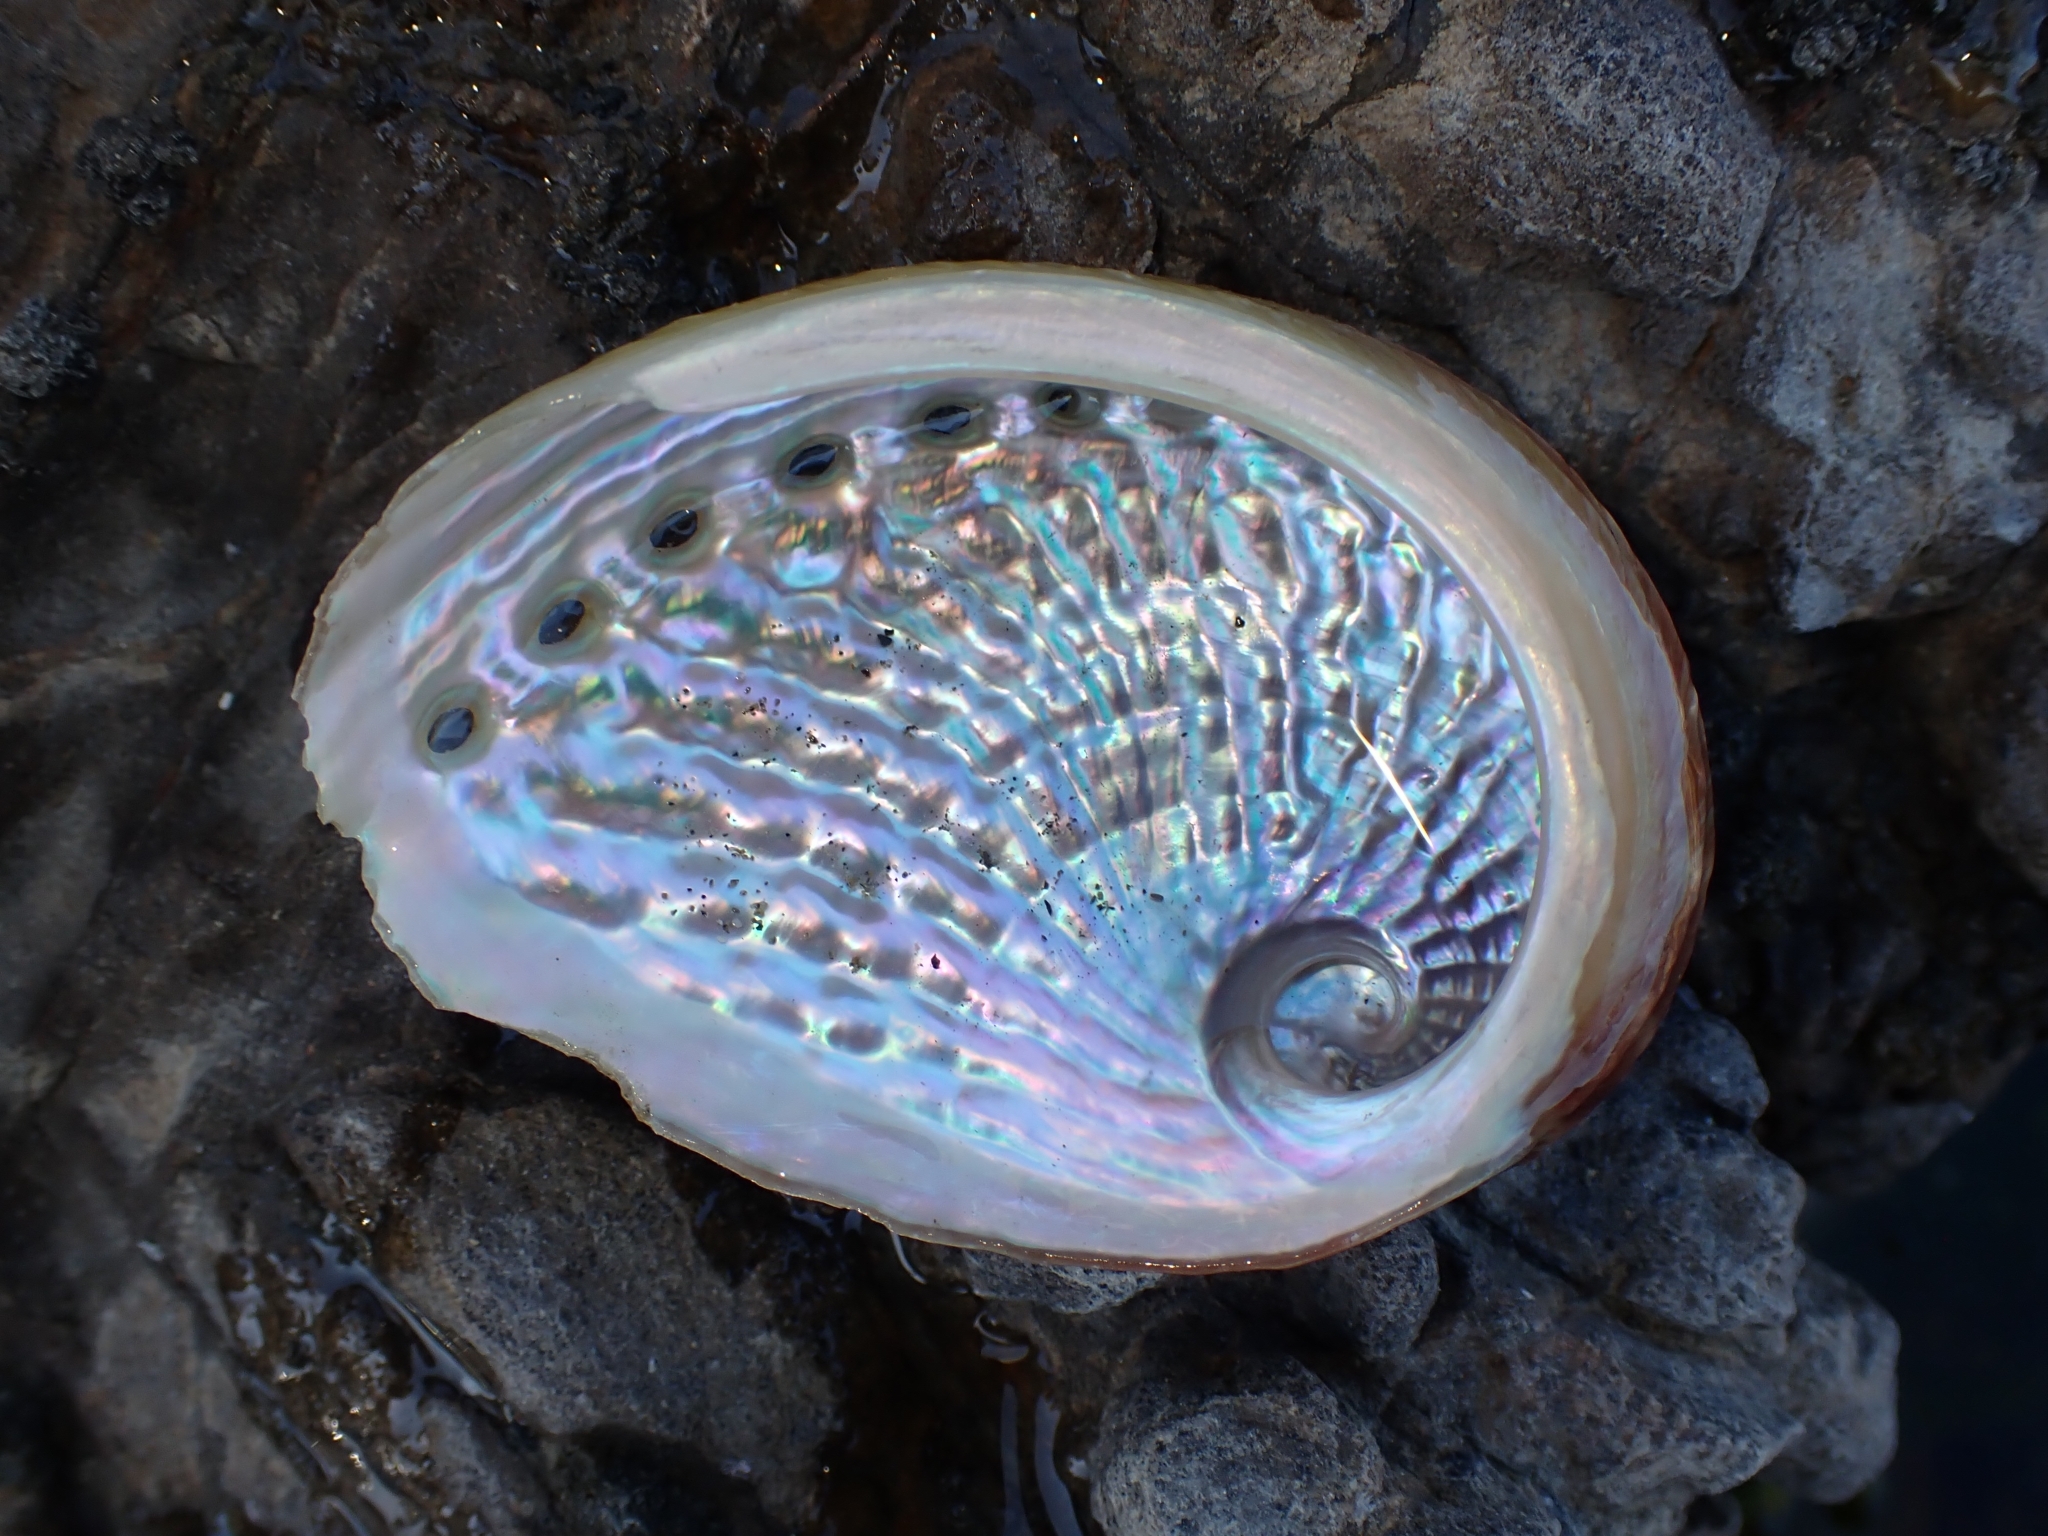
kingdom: Animalia
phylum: Mollusca
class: Gastropoda
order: Lepetellida
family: Haliotidae
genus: Haliotis
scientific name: Haliotis australis
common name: Silver abalone
